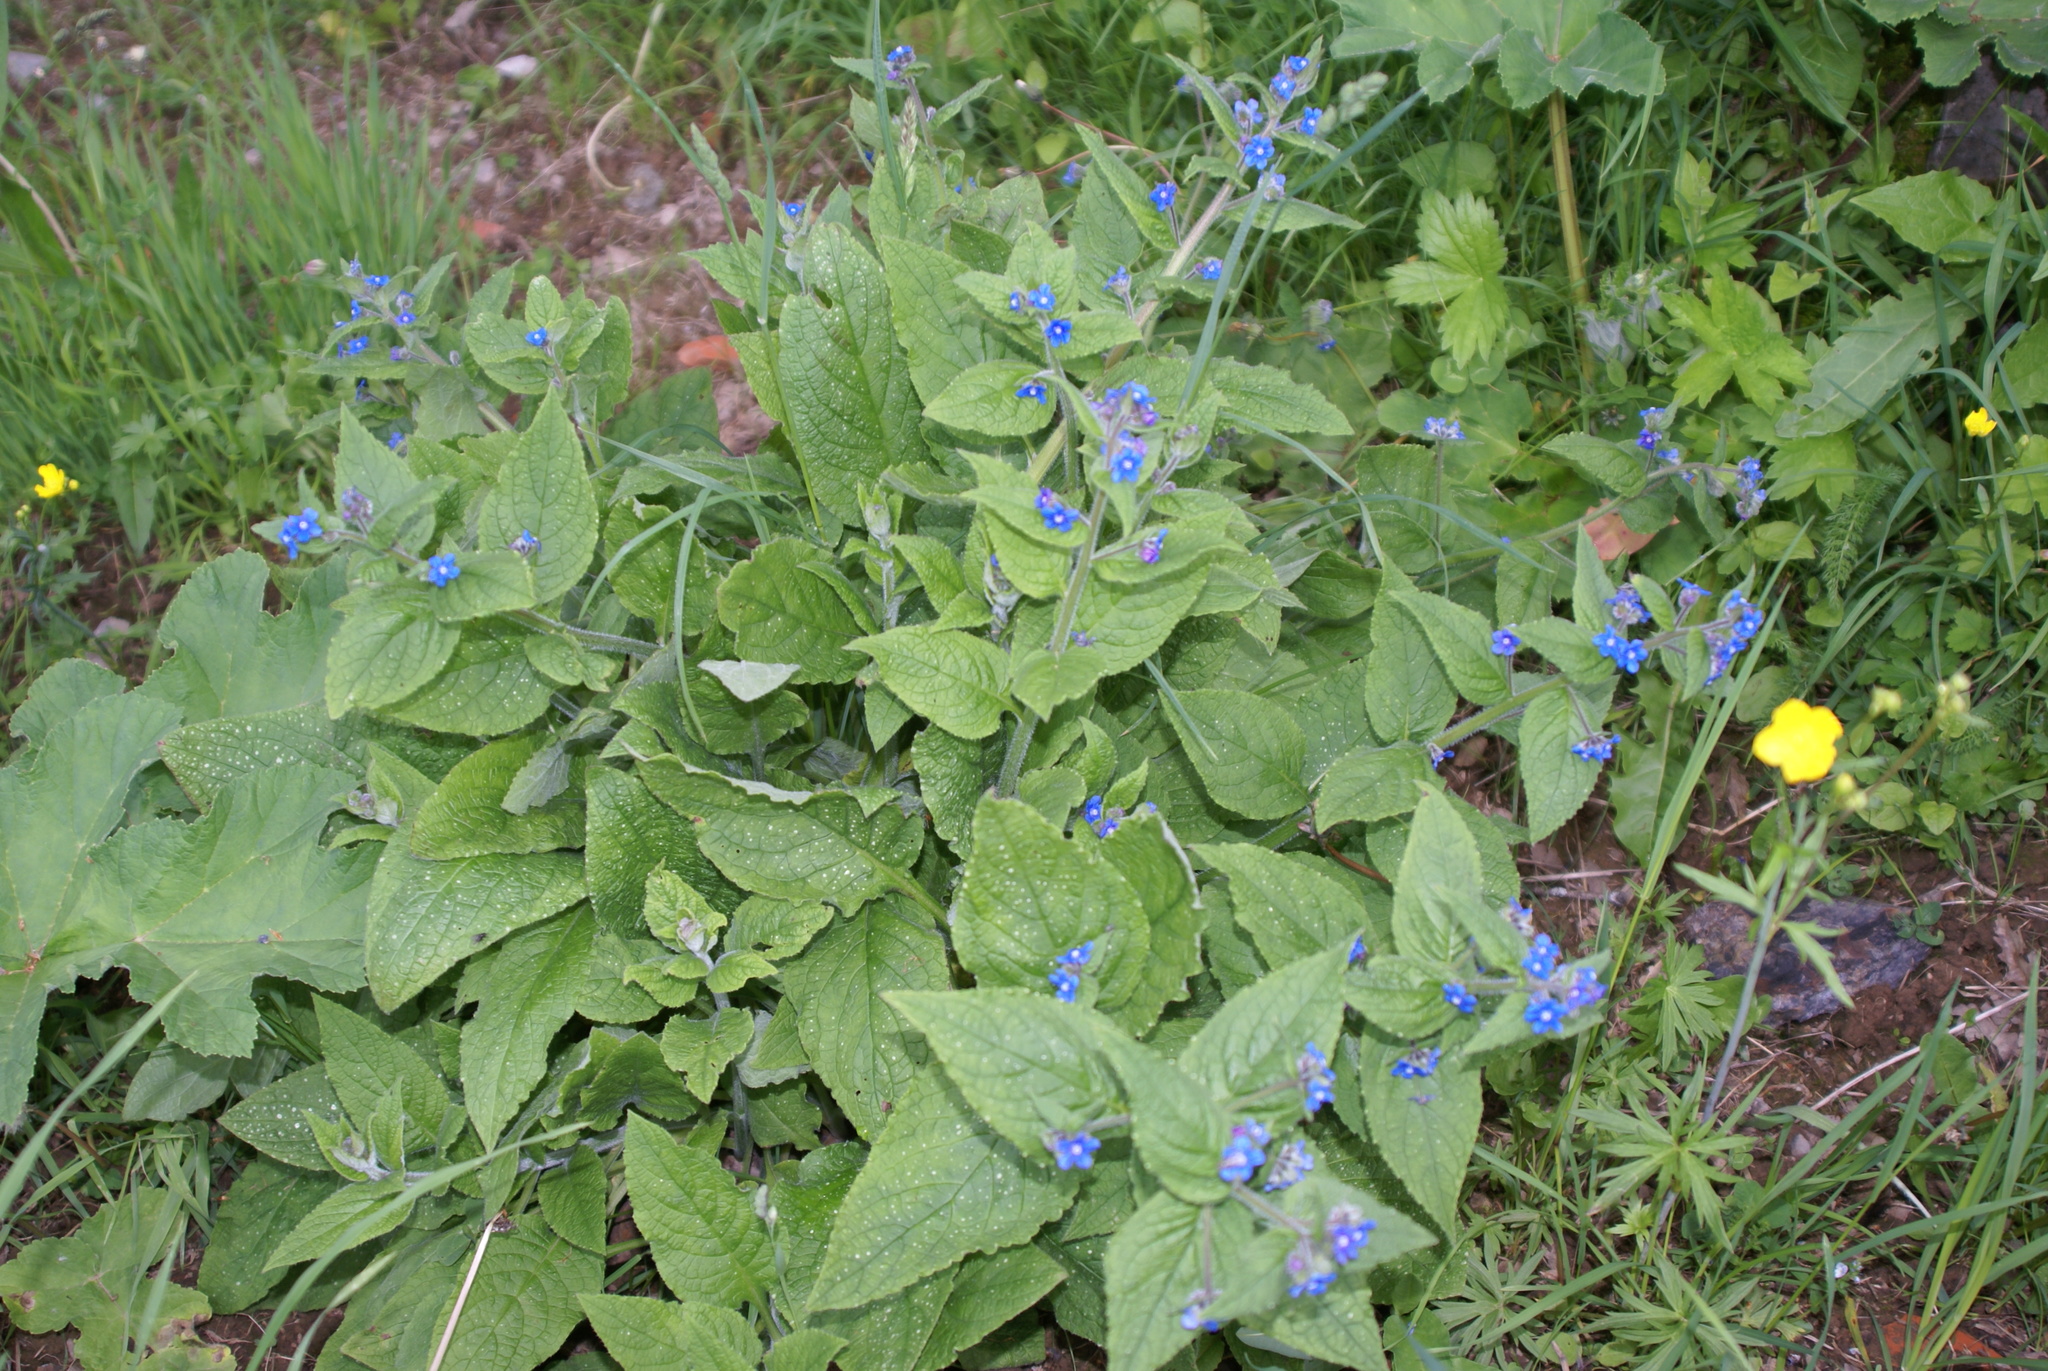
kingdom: Plantae
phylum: Tracheophyta
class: Magnoliopsida
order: Boraginales
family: Boraginaceae
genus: Pentaglottis
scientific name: Pentaglottis sempervirens
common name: Green alkanet
